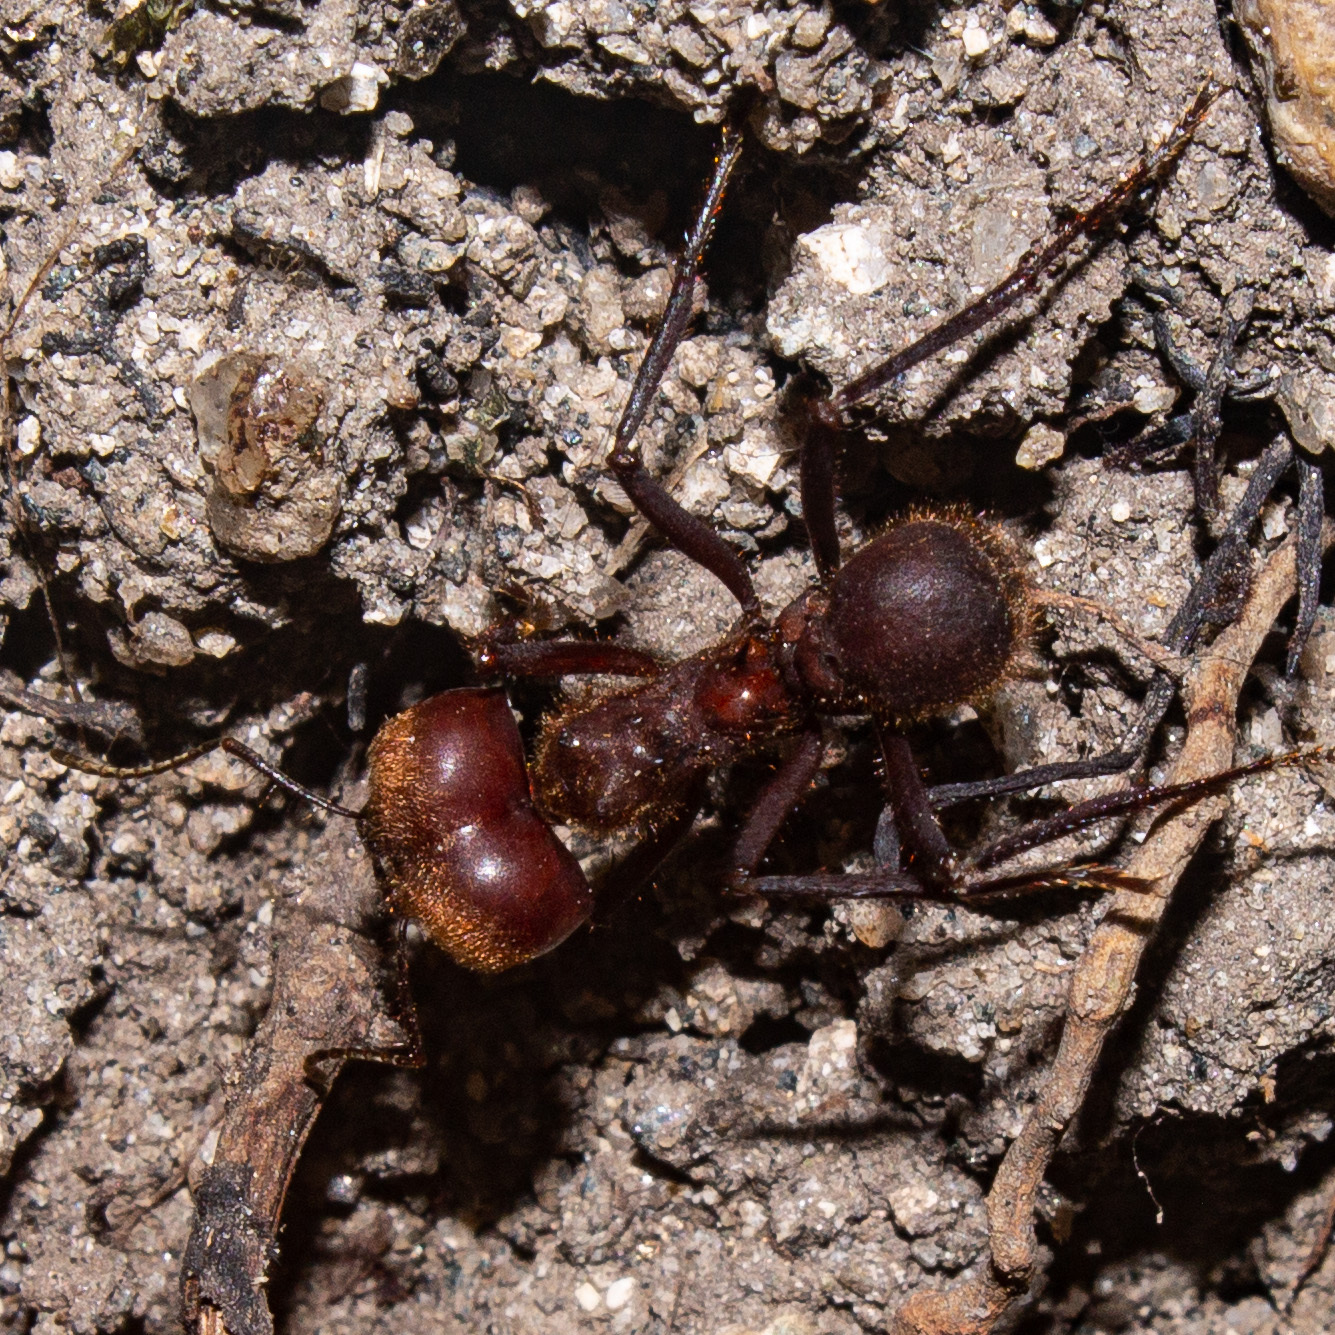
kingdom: Animalia
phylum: Arthropoda
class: Insecta
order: Hymenoptera
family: Formicidae
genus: Atta
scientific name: Atta cephalotes
